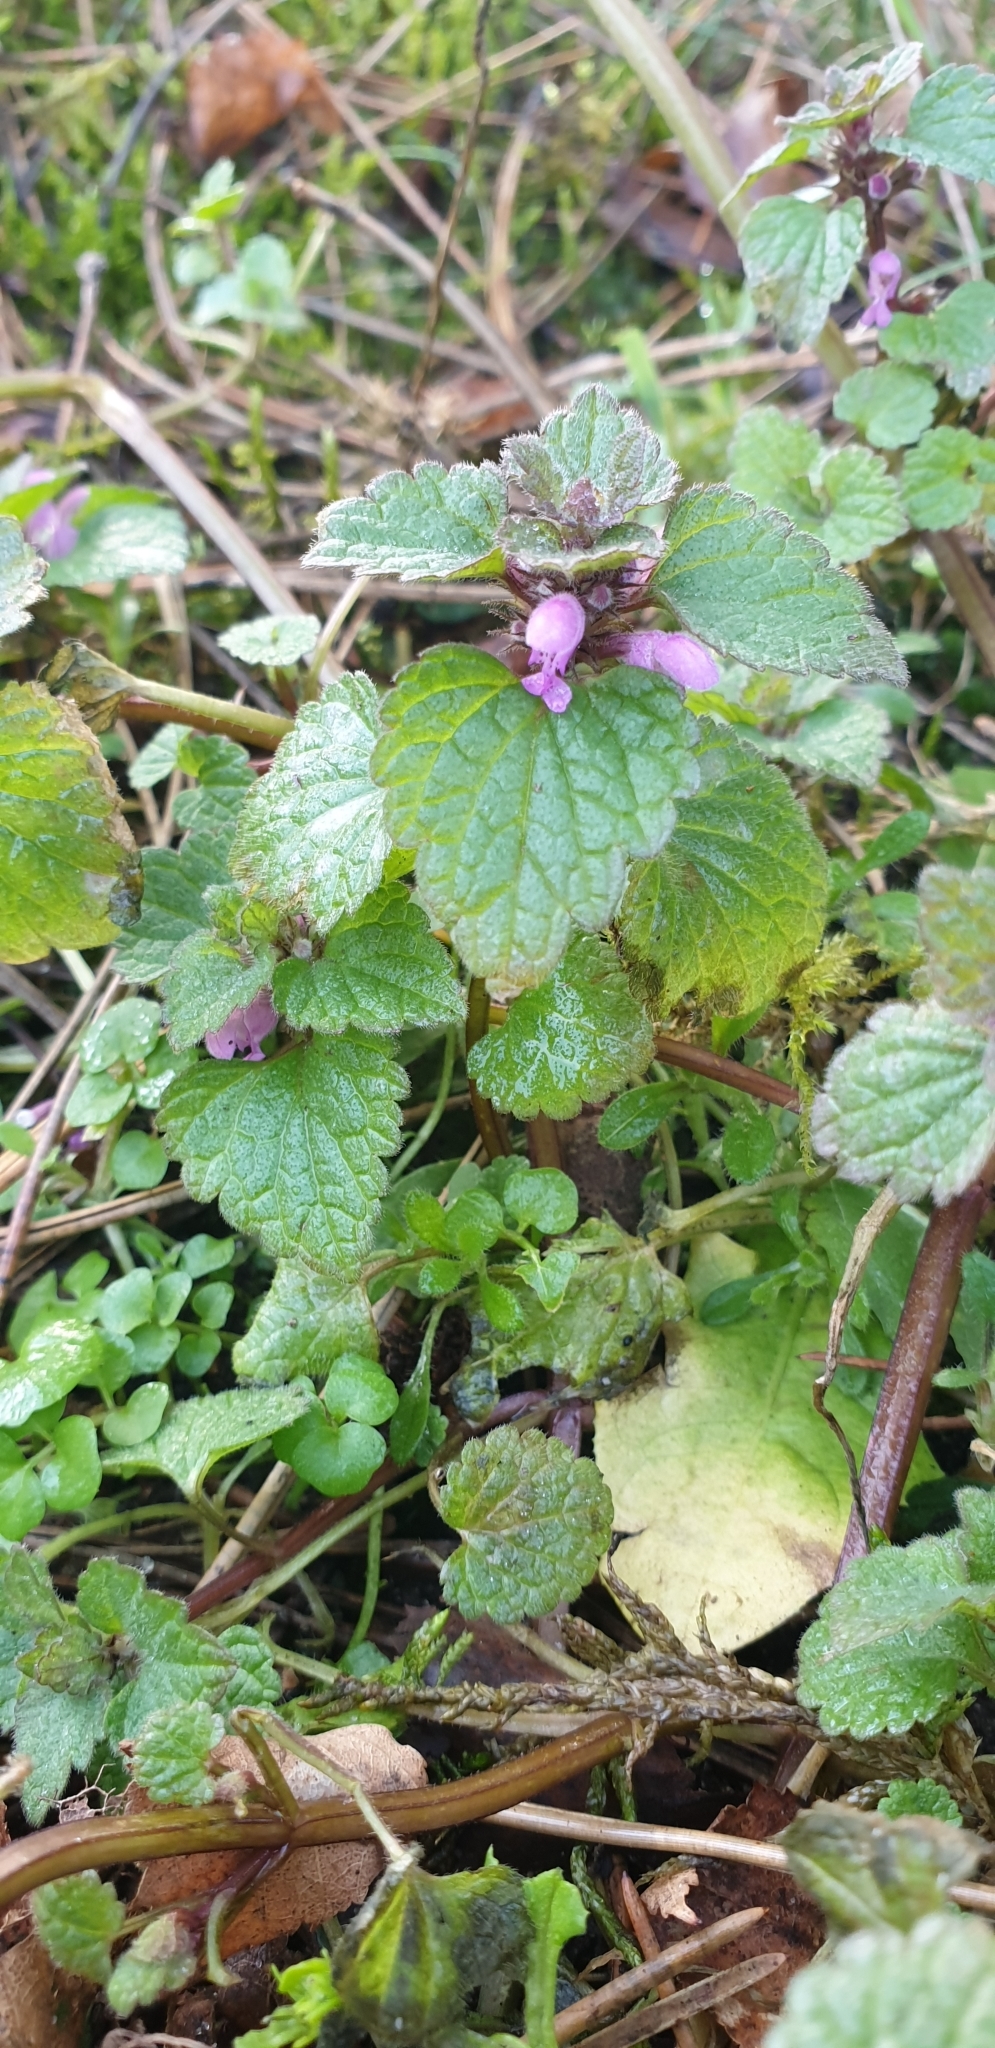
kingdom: Plantae
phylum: Tracheophyta
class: Magnoliopsida
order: Lamiales
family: Lamiaceae
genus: Lamium
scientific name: Lamium purpureum
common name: Red dead-nettle
